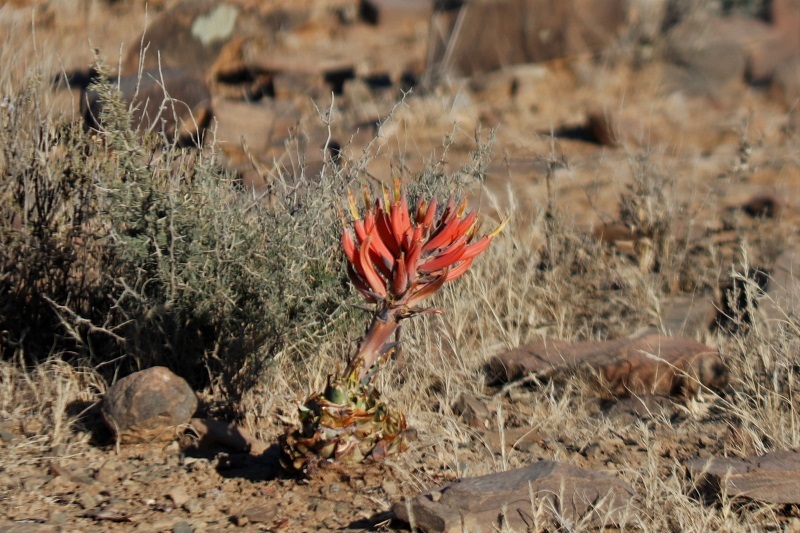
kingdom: Plantae
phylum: Tracheophyta
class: Liliopsida
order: Asparagales
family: Asphodelaceae
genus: Aloe
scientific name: Aloe longistyla
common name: Karoo aloe
